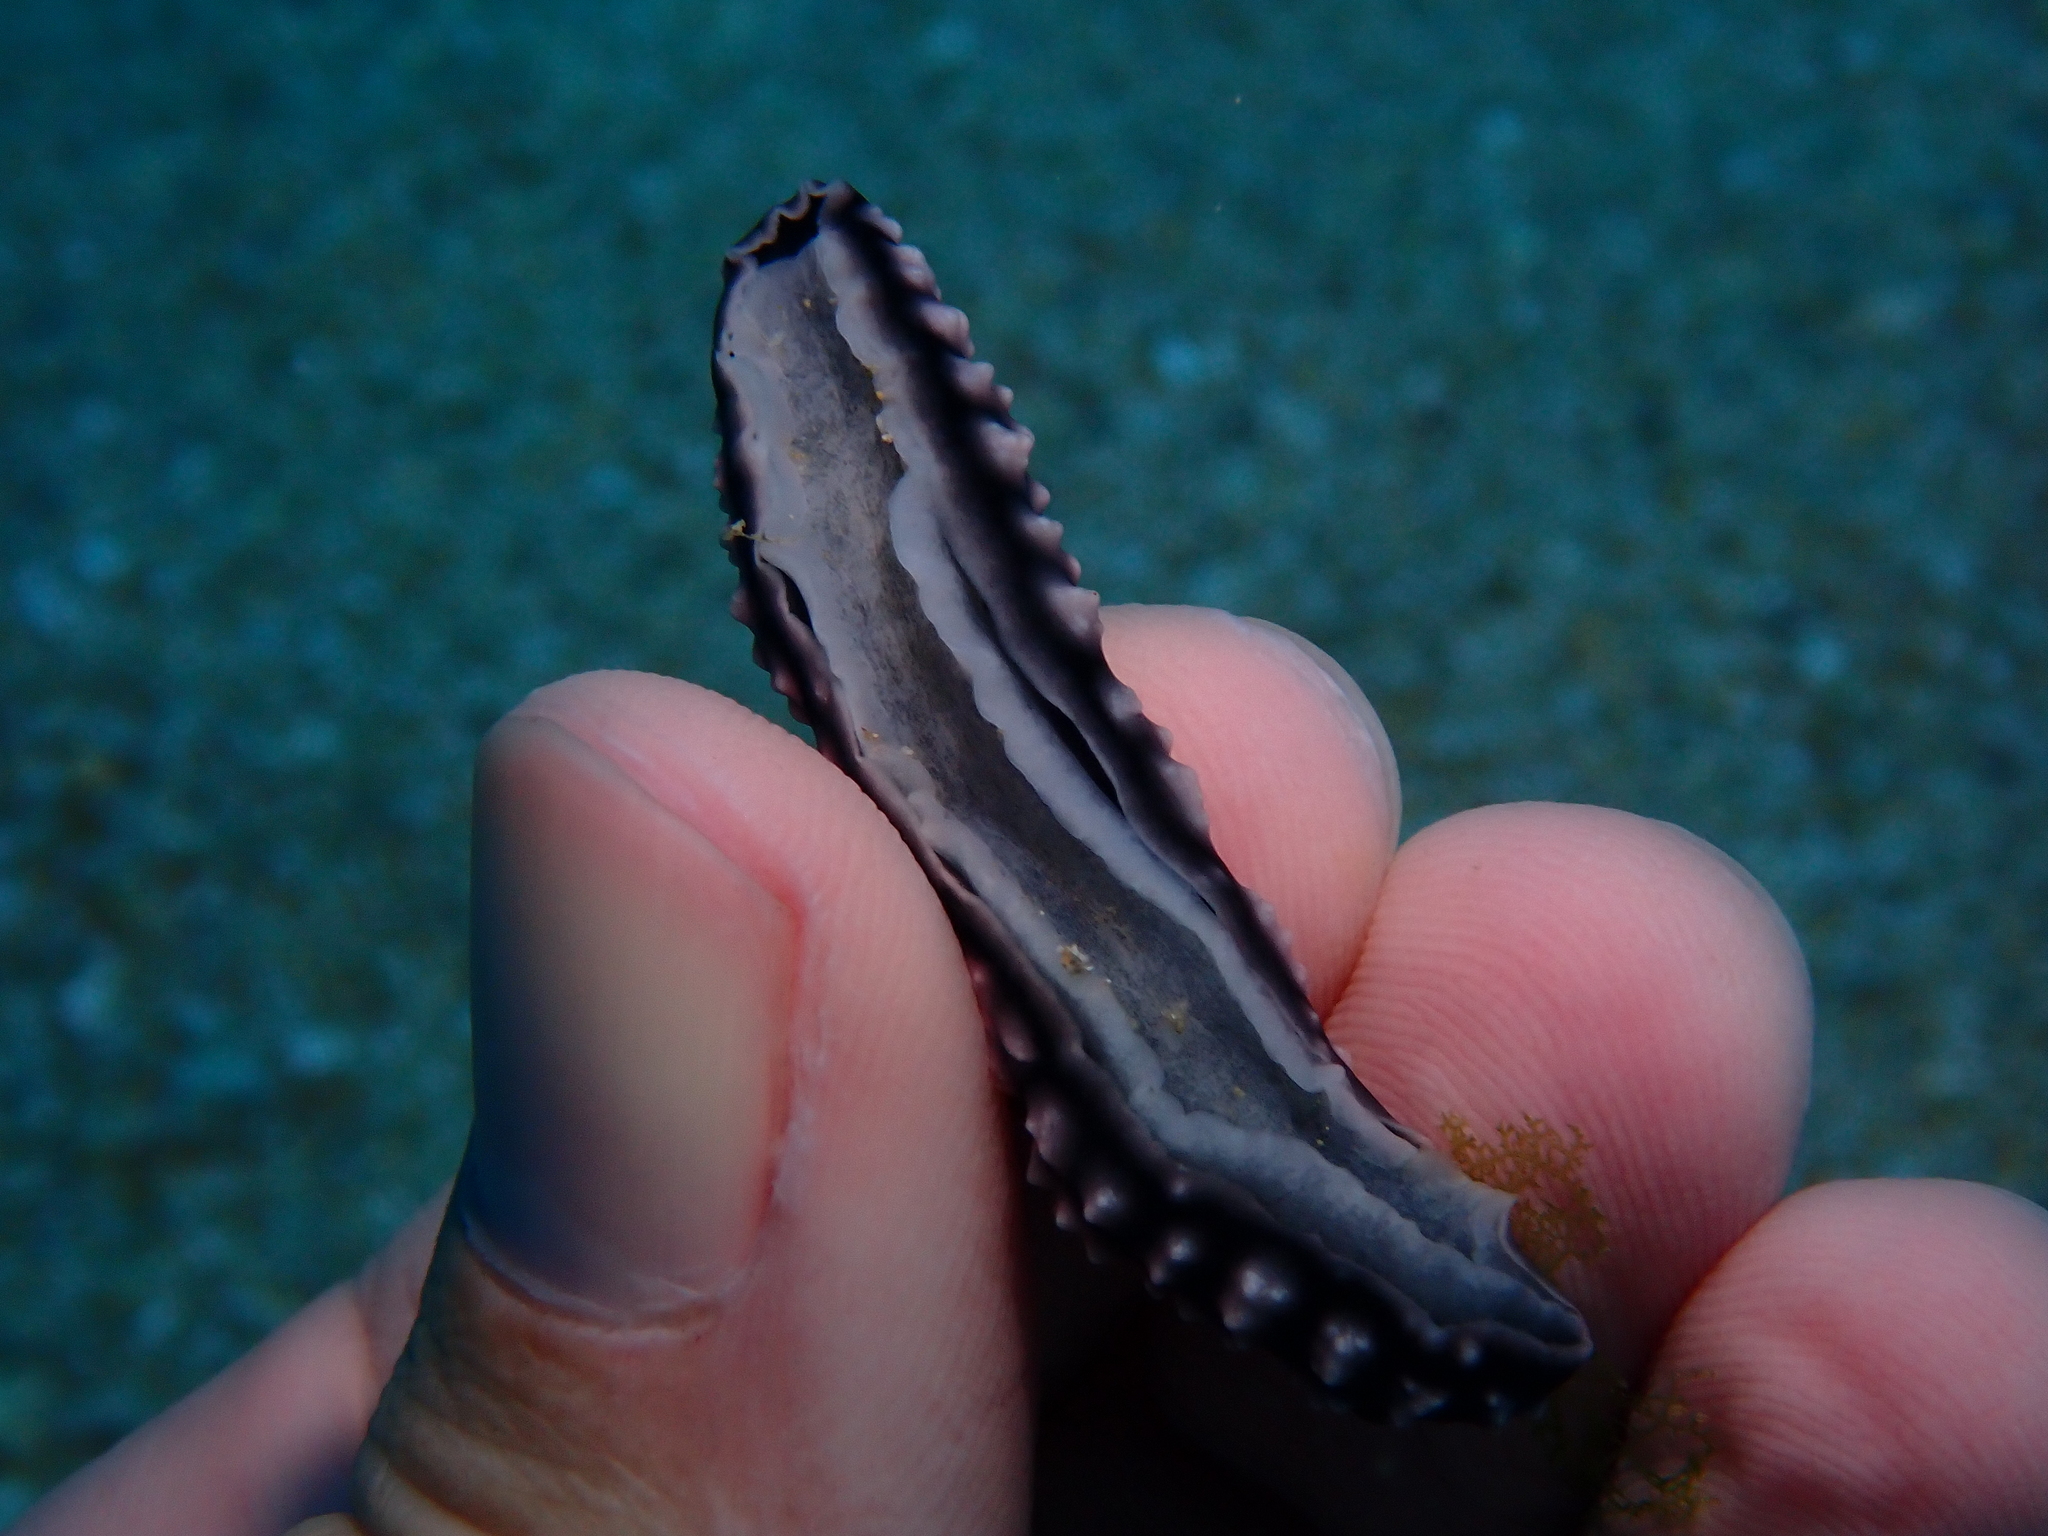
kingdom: Animalia
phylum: Mollusca
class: Gastropoda
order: Nudibranchia
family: Phyllidiidae
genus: Phyllidiella
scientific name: Phyllidiella pustulosa
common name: Pustular phyllidia
